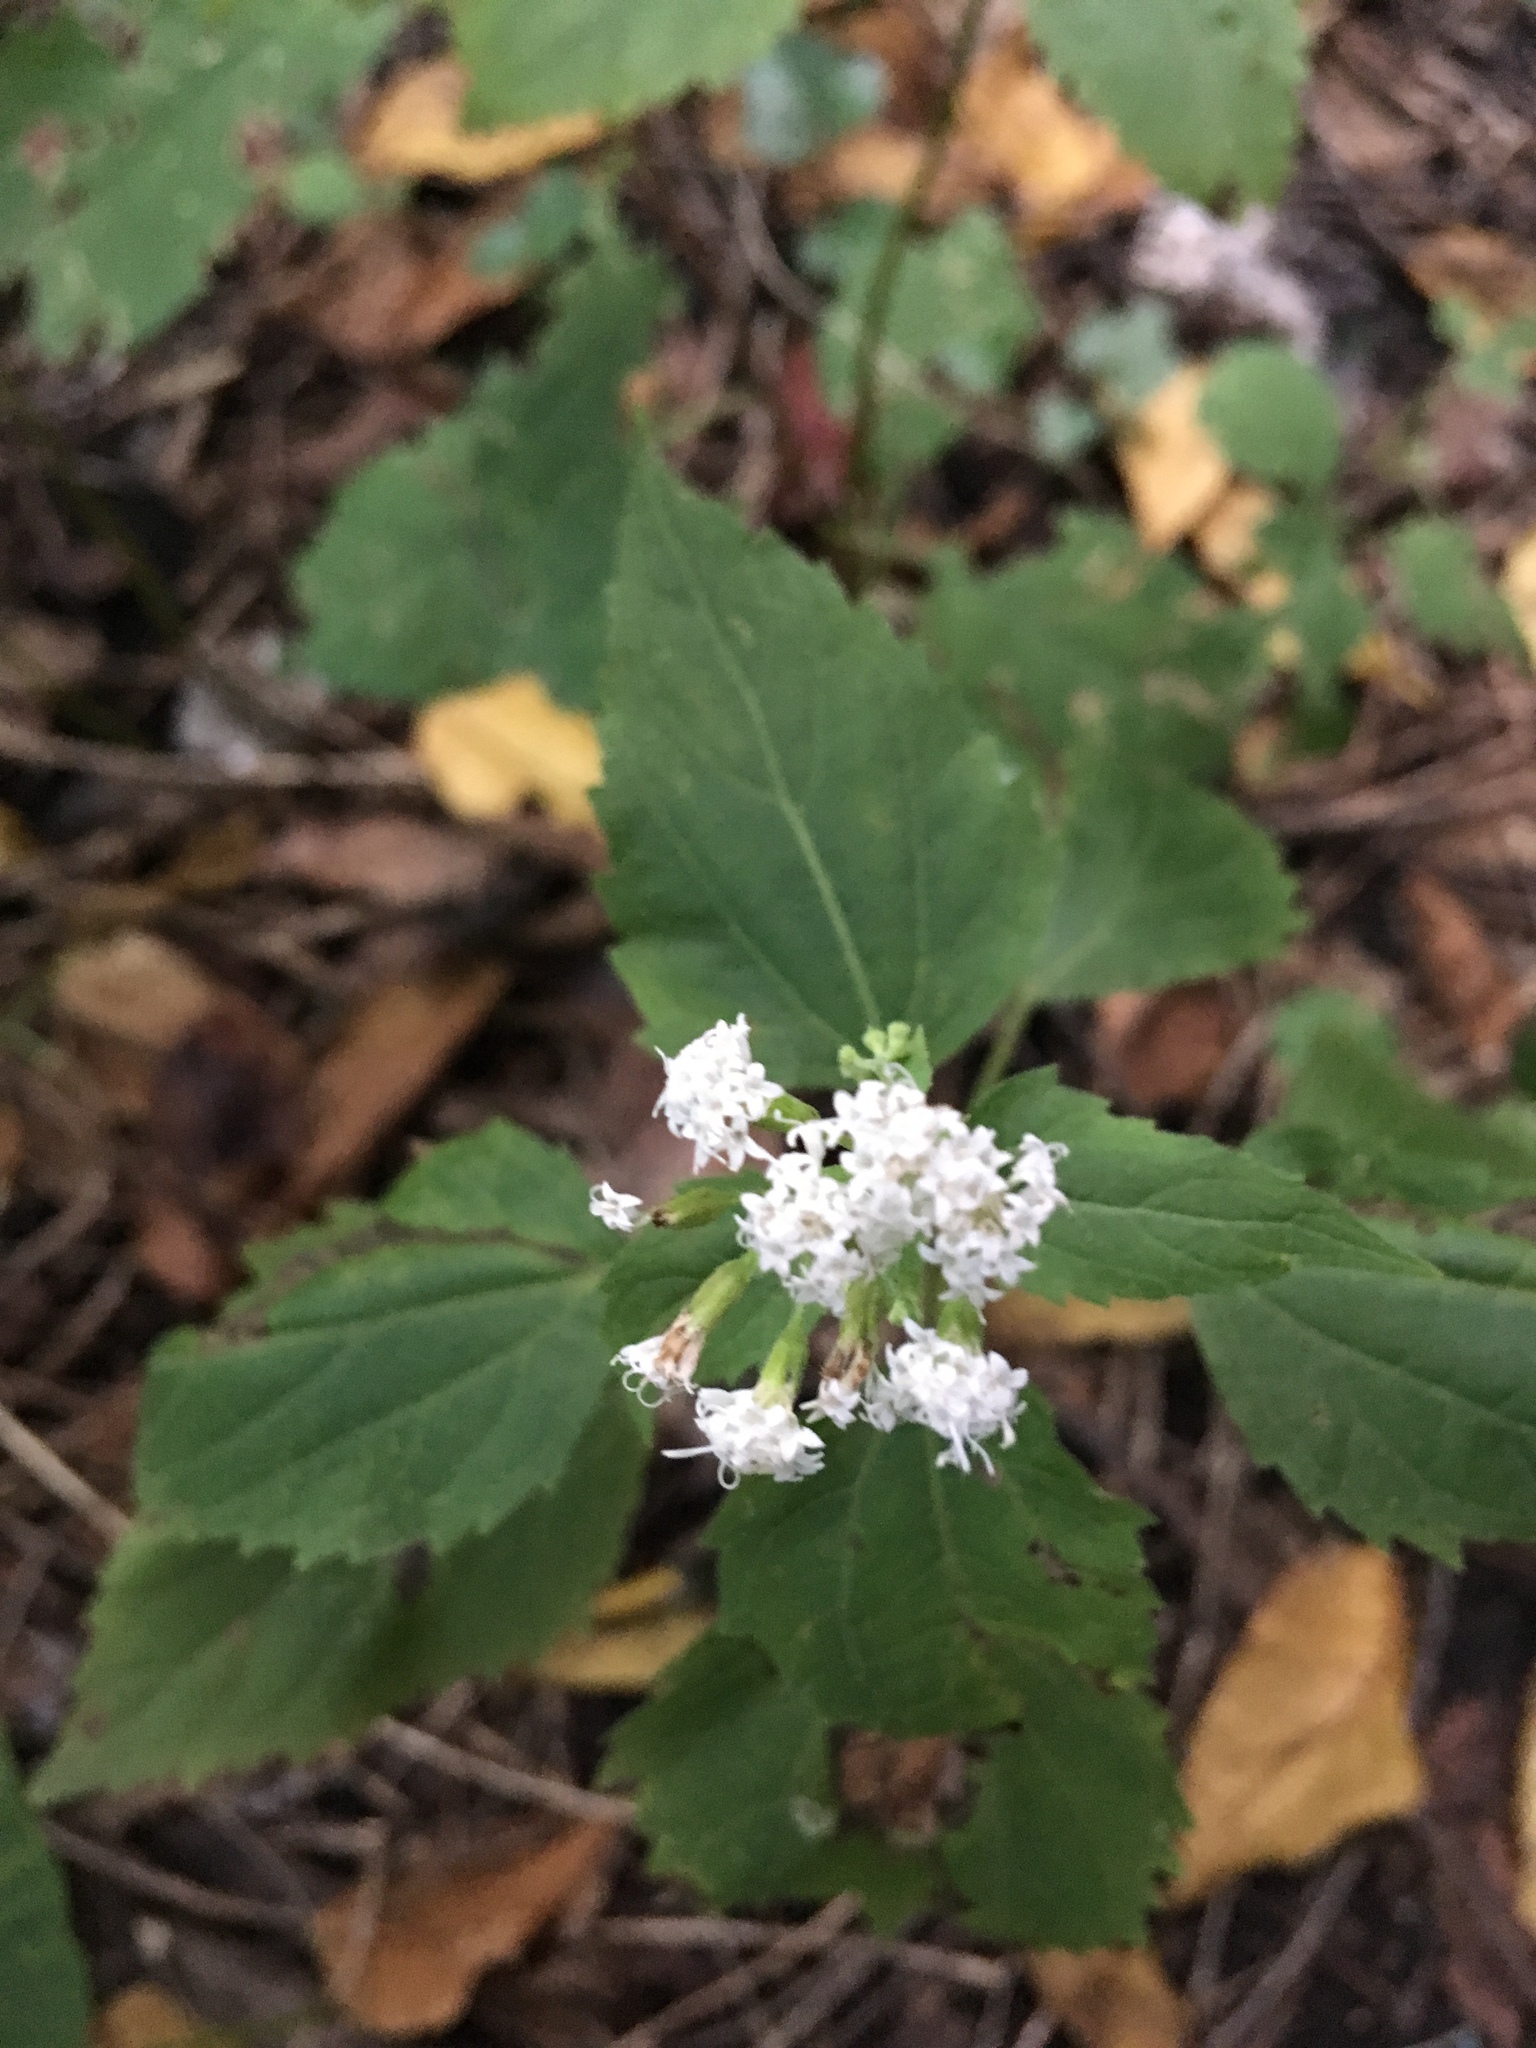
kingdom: Plantae
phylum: Tracheophyta
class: Magnoliopsida
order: Asterales
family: Asteraceae
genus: Ageratina
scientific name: Ageratina altissima
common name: White snakeroot
